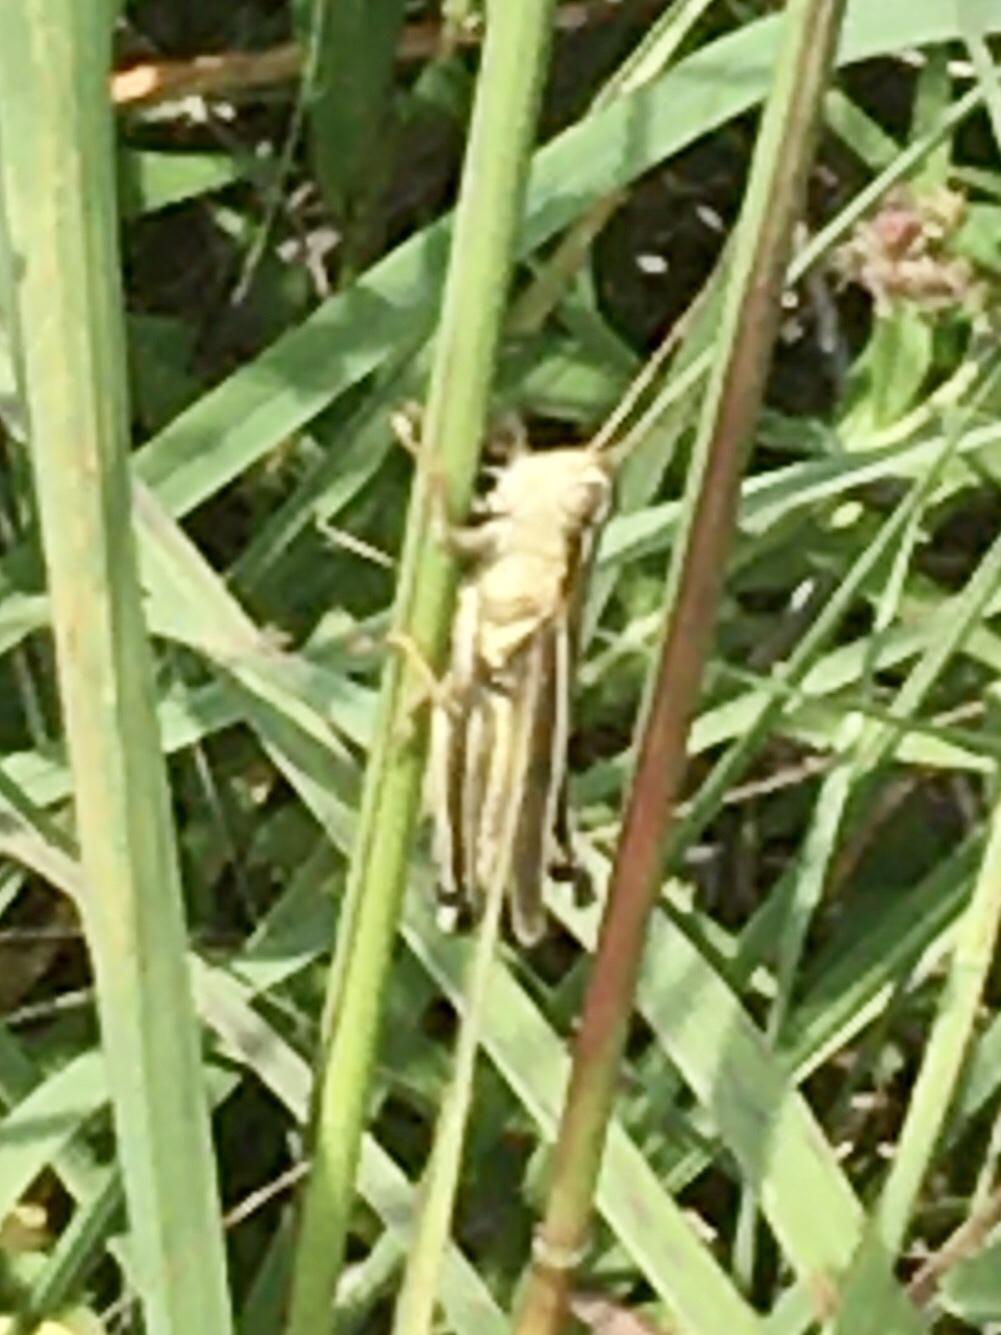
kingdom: Animalia
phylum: Arthropoda
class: Insecta
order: Orthoptera
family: Acrididae
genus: Melanoplus
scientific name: Melanoplus bivittatus
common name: Two-striped grasshopper
